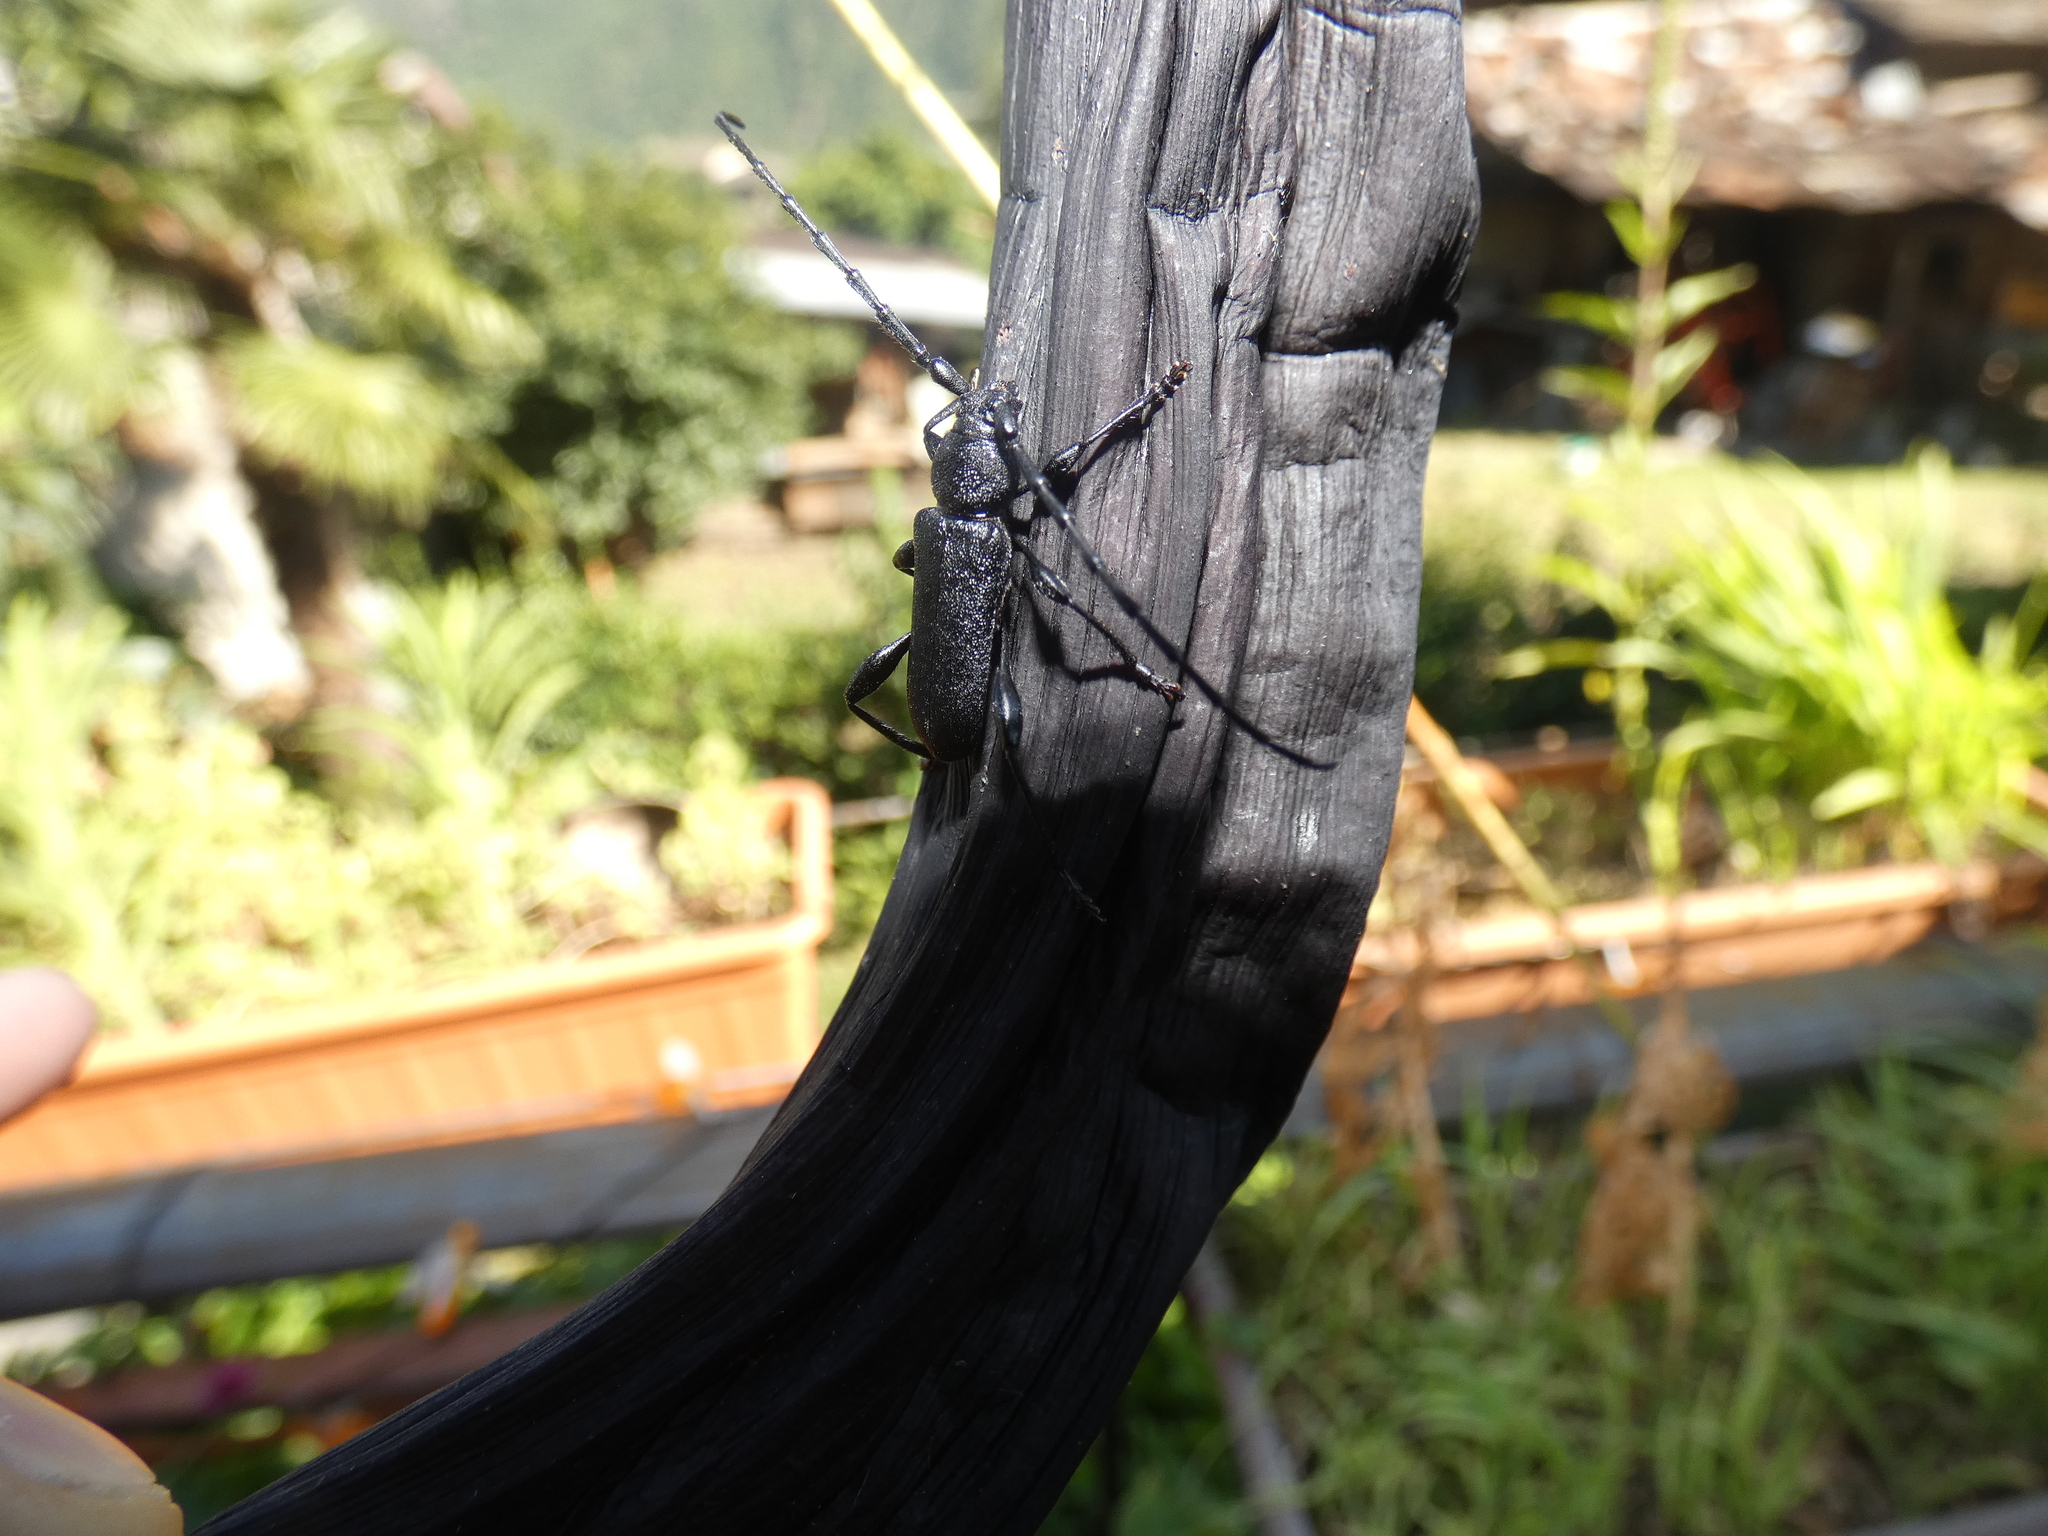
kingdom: Animalia
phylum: Arthropoda
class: Insecta
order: Coleoptera
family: Cerambycidae
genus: Ropalopus
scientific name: Ropalopus clavipes
